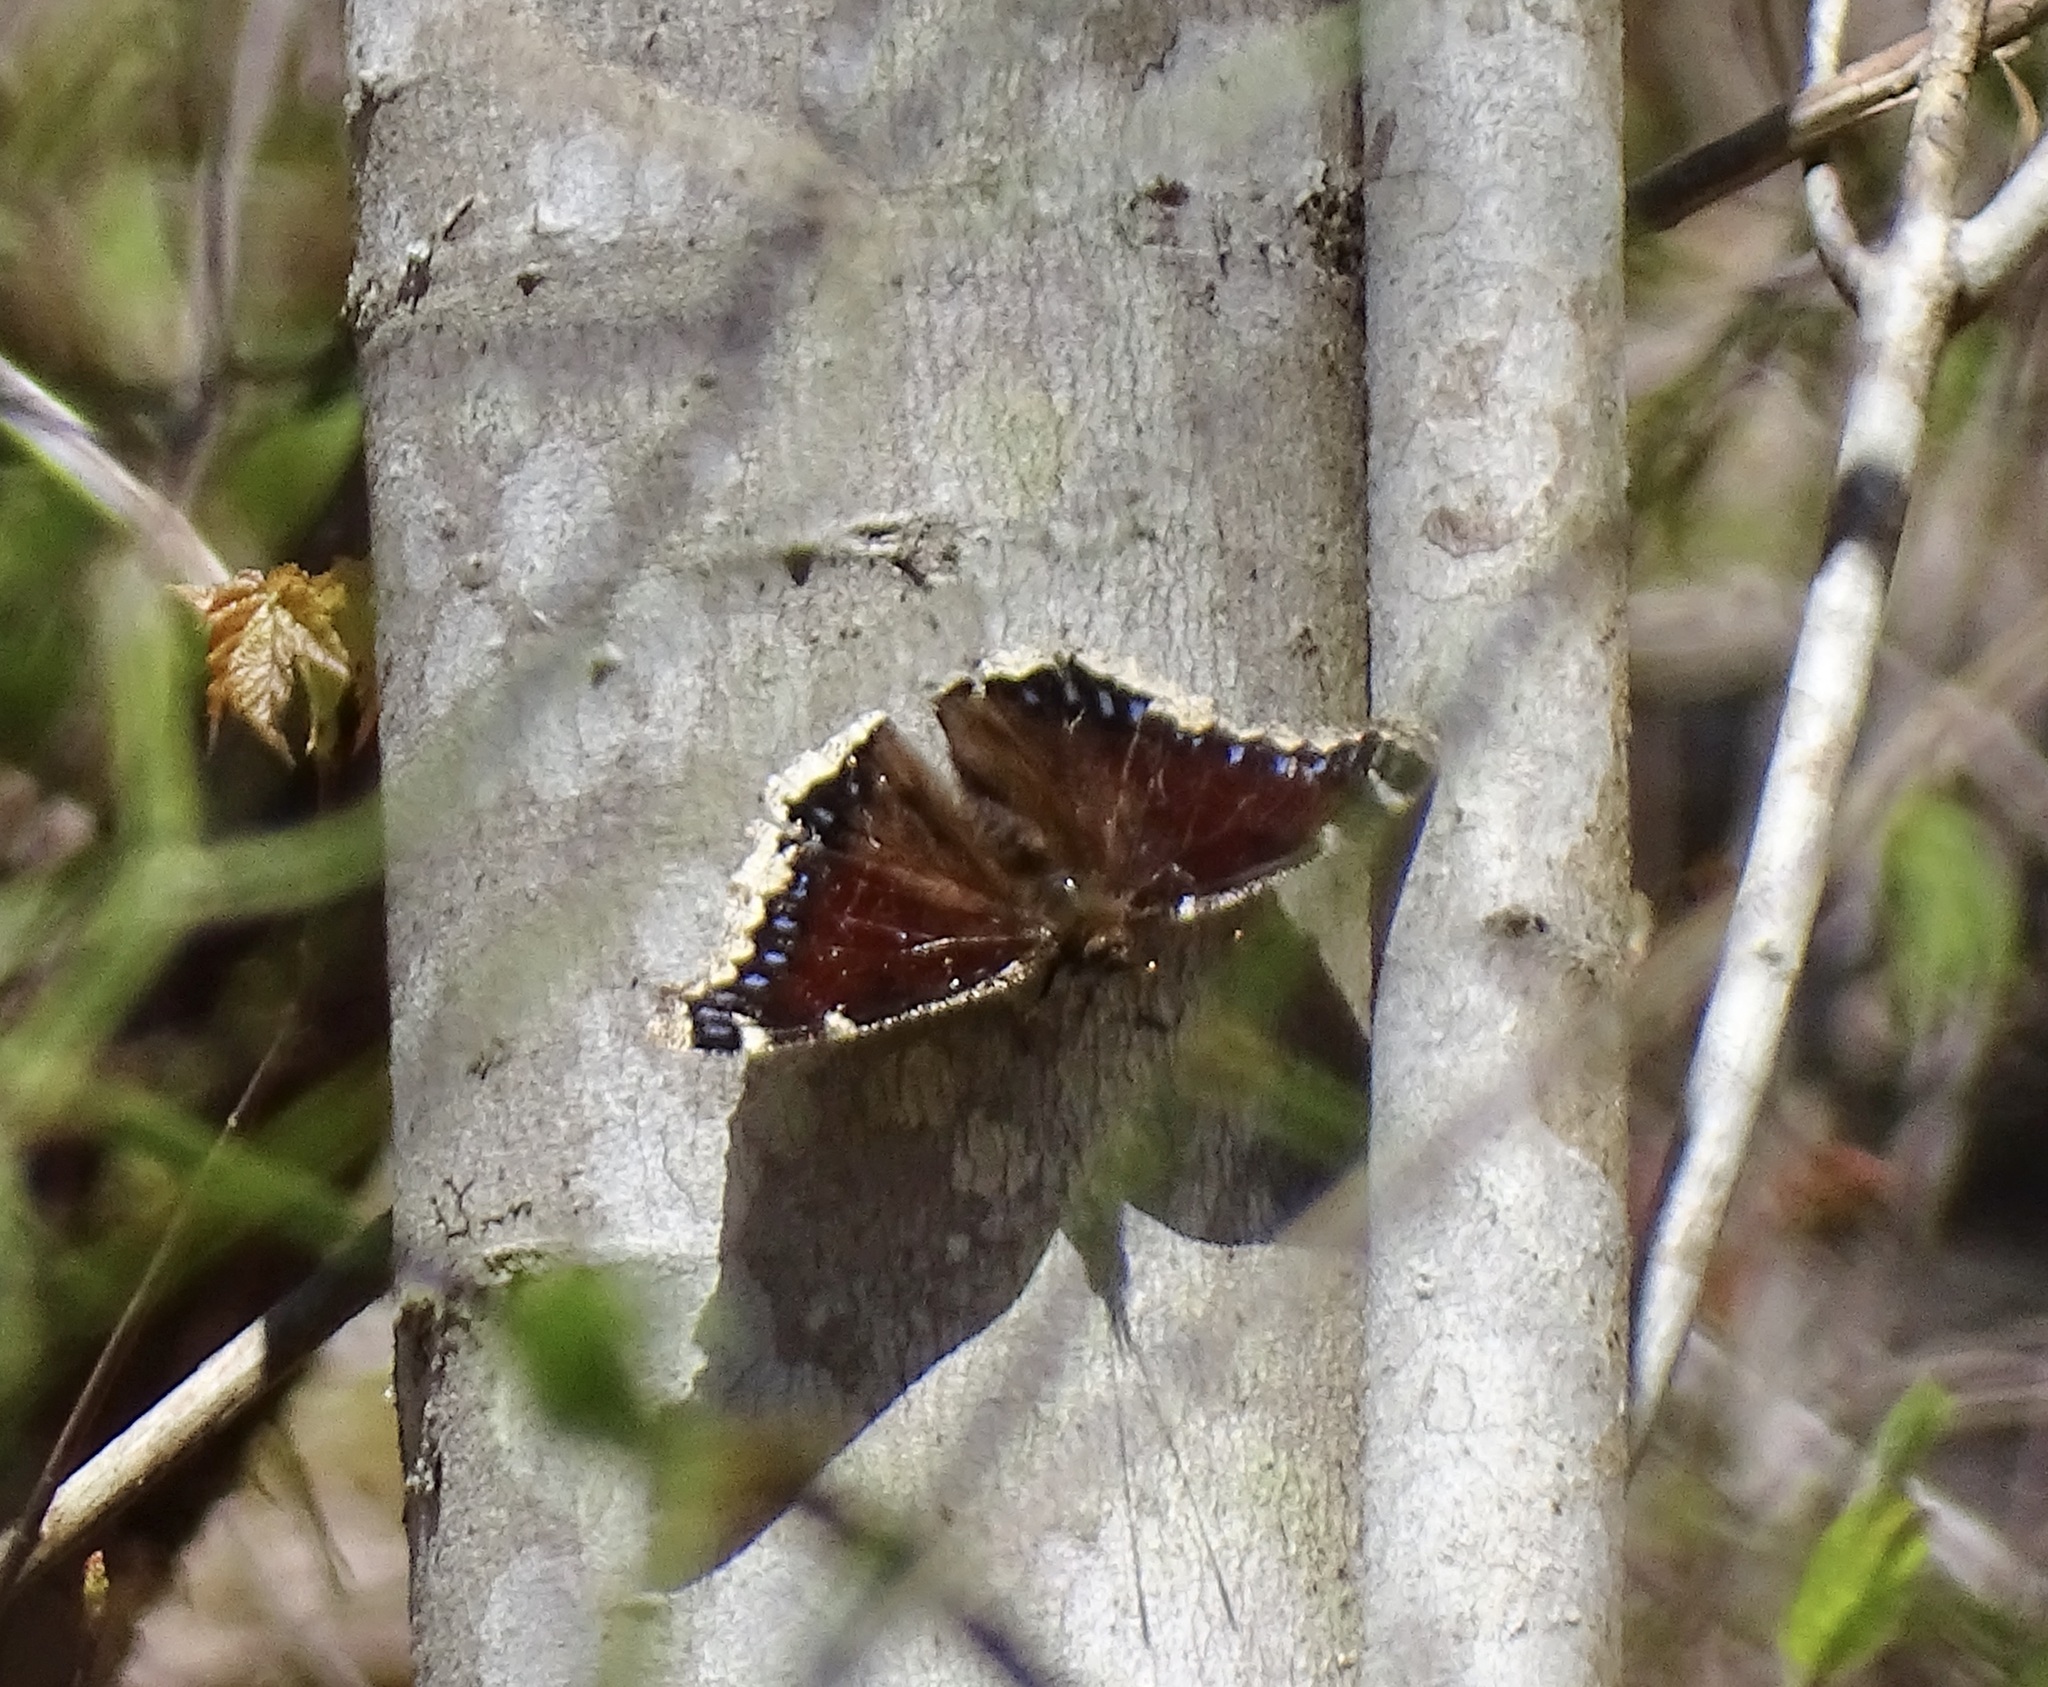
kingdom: Animalia
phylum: Arthropoda
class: Insecta
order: Lepidoptera
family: Nymphalidae
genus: Nymphalis
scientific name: Nymphalis antiopa
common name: Camberwell beauty
